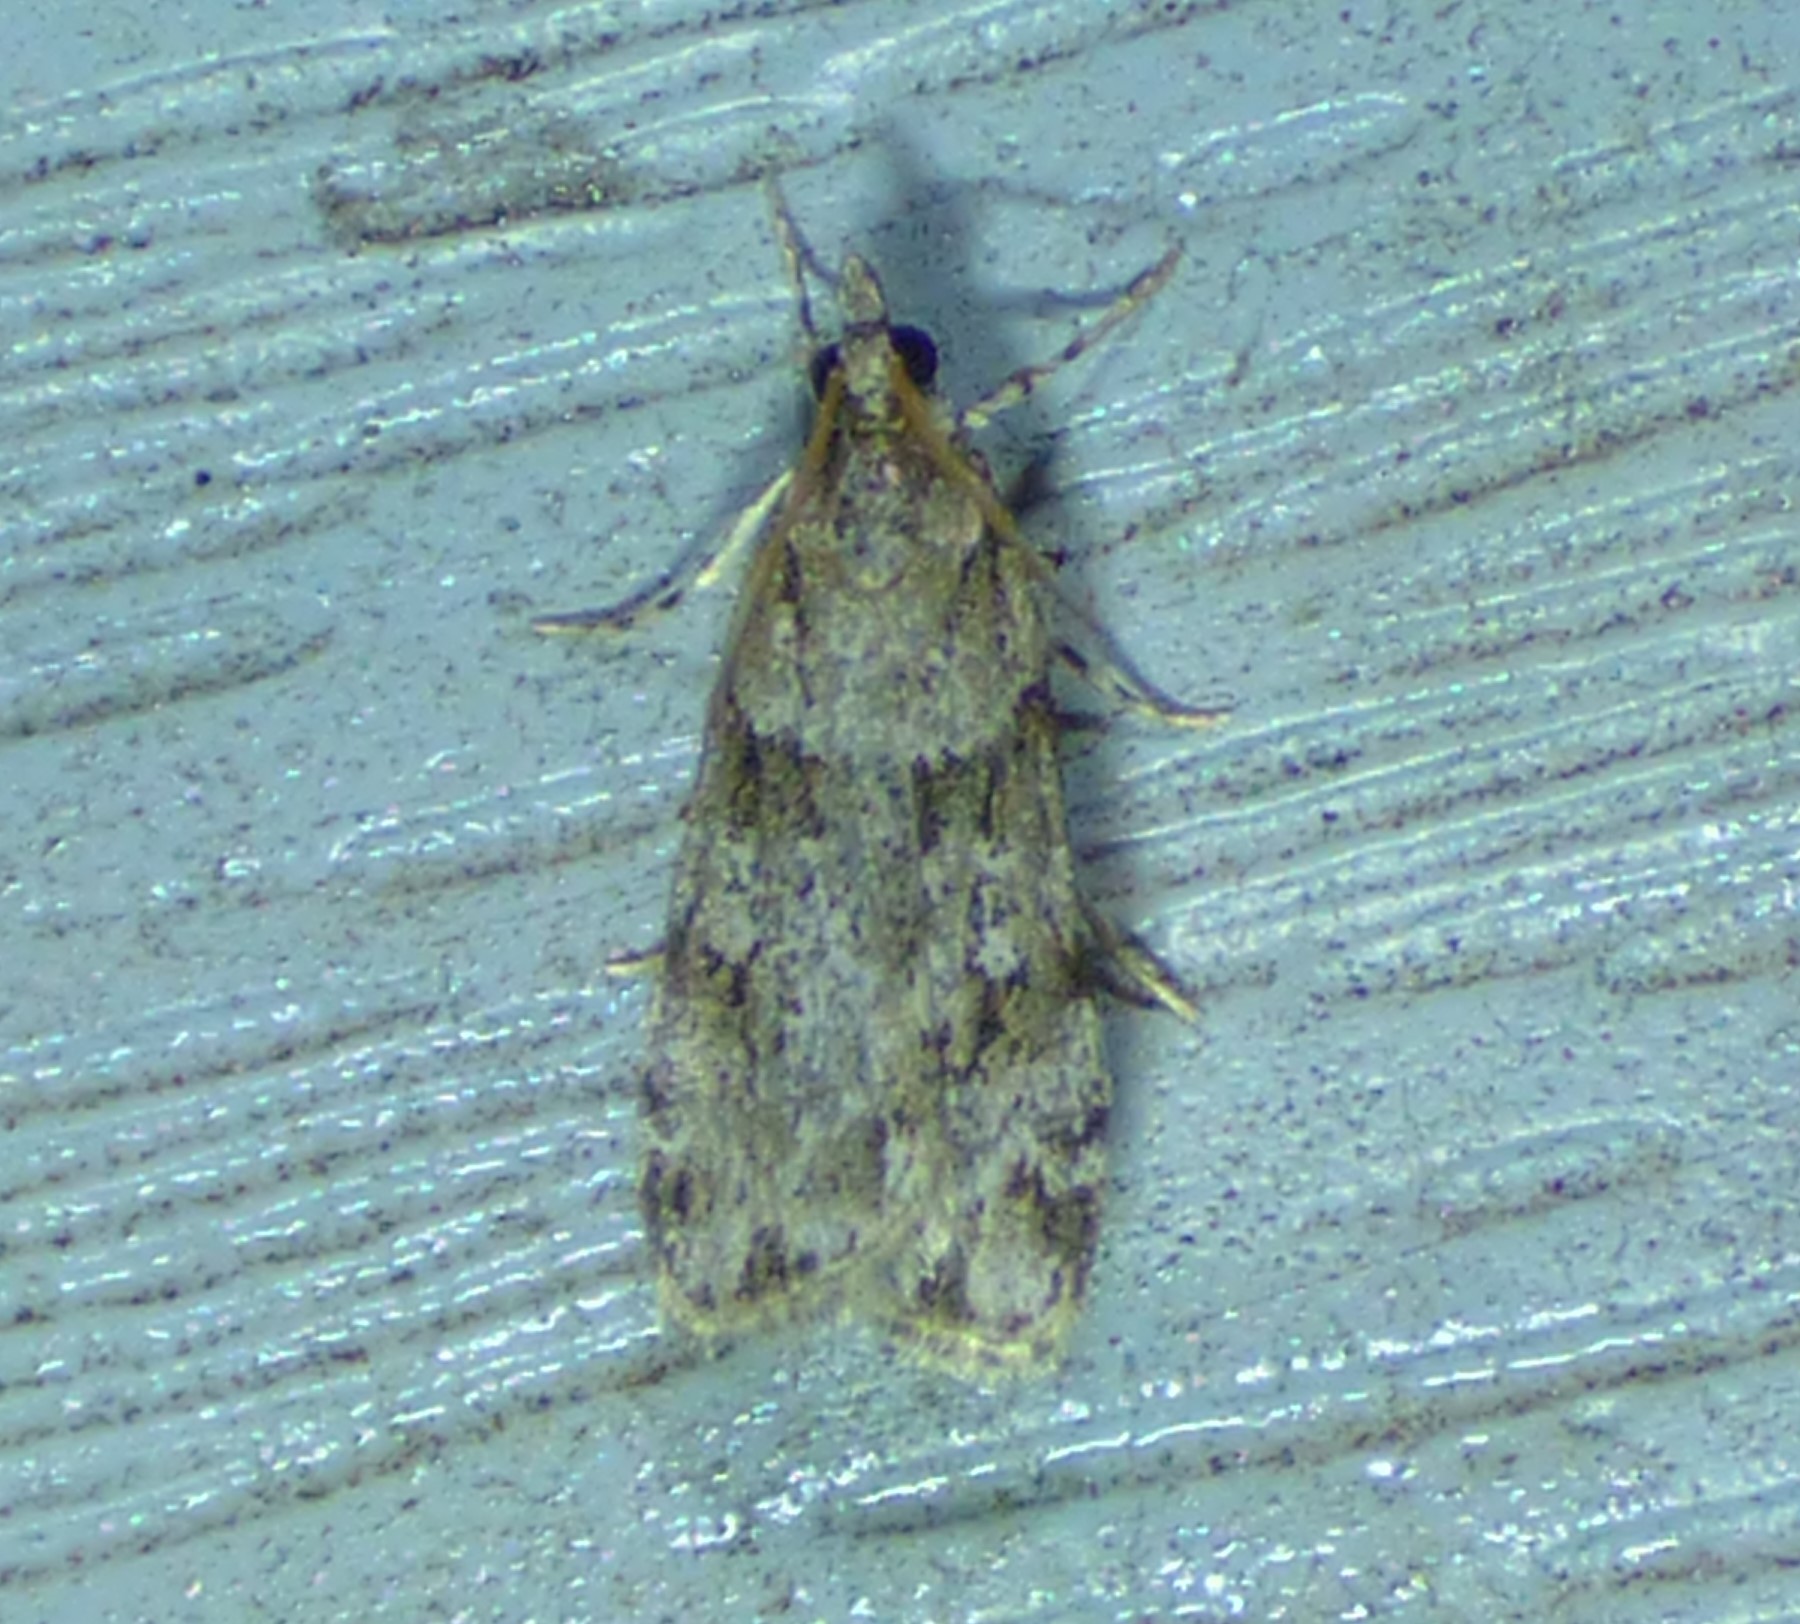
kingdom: Animalia
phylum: Arthropoda
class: Insecta
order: Lepidoptera
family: Crambidae
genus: Scoparia
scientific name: Scoparia biplagialis
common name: Double-striped scoparia moth
